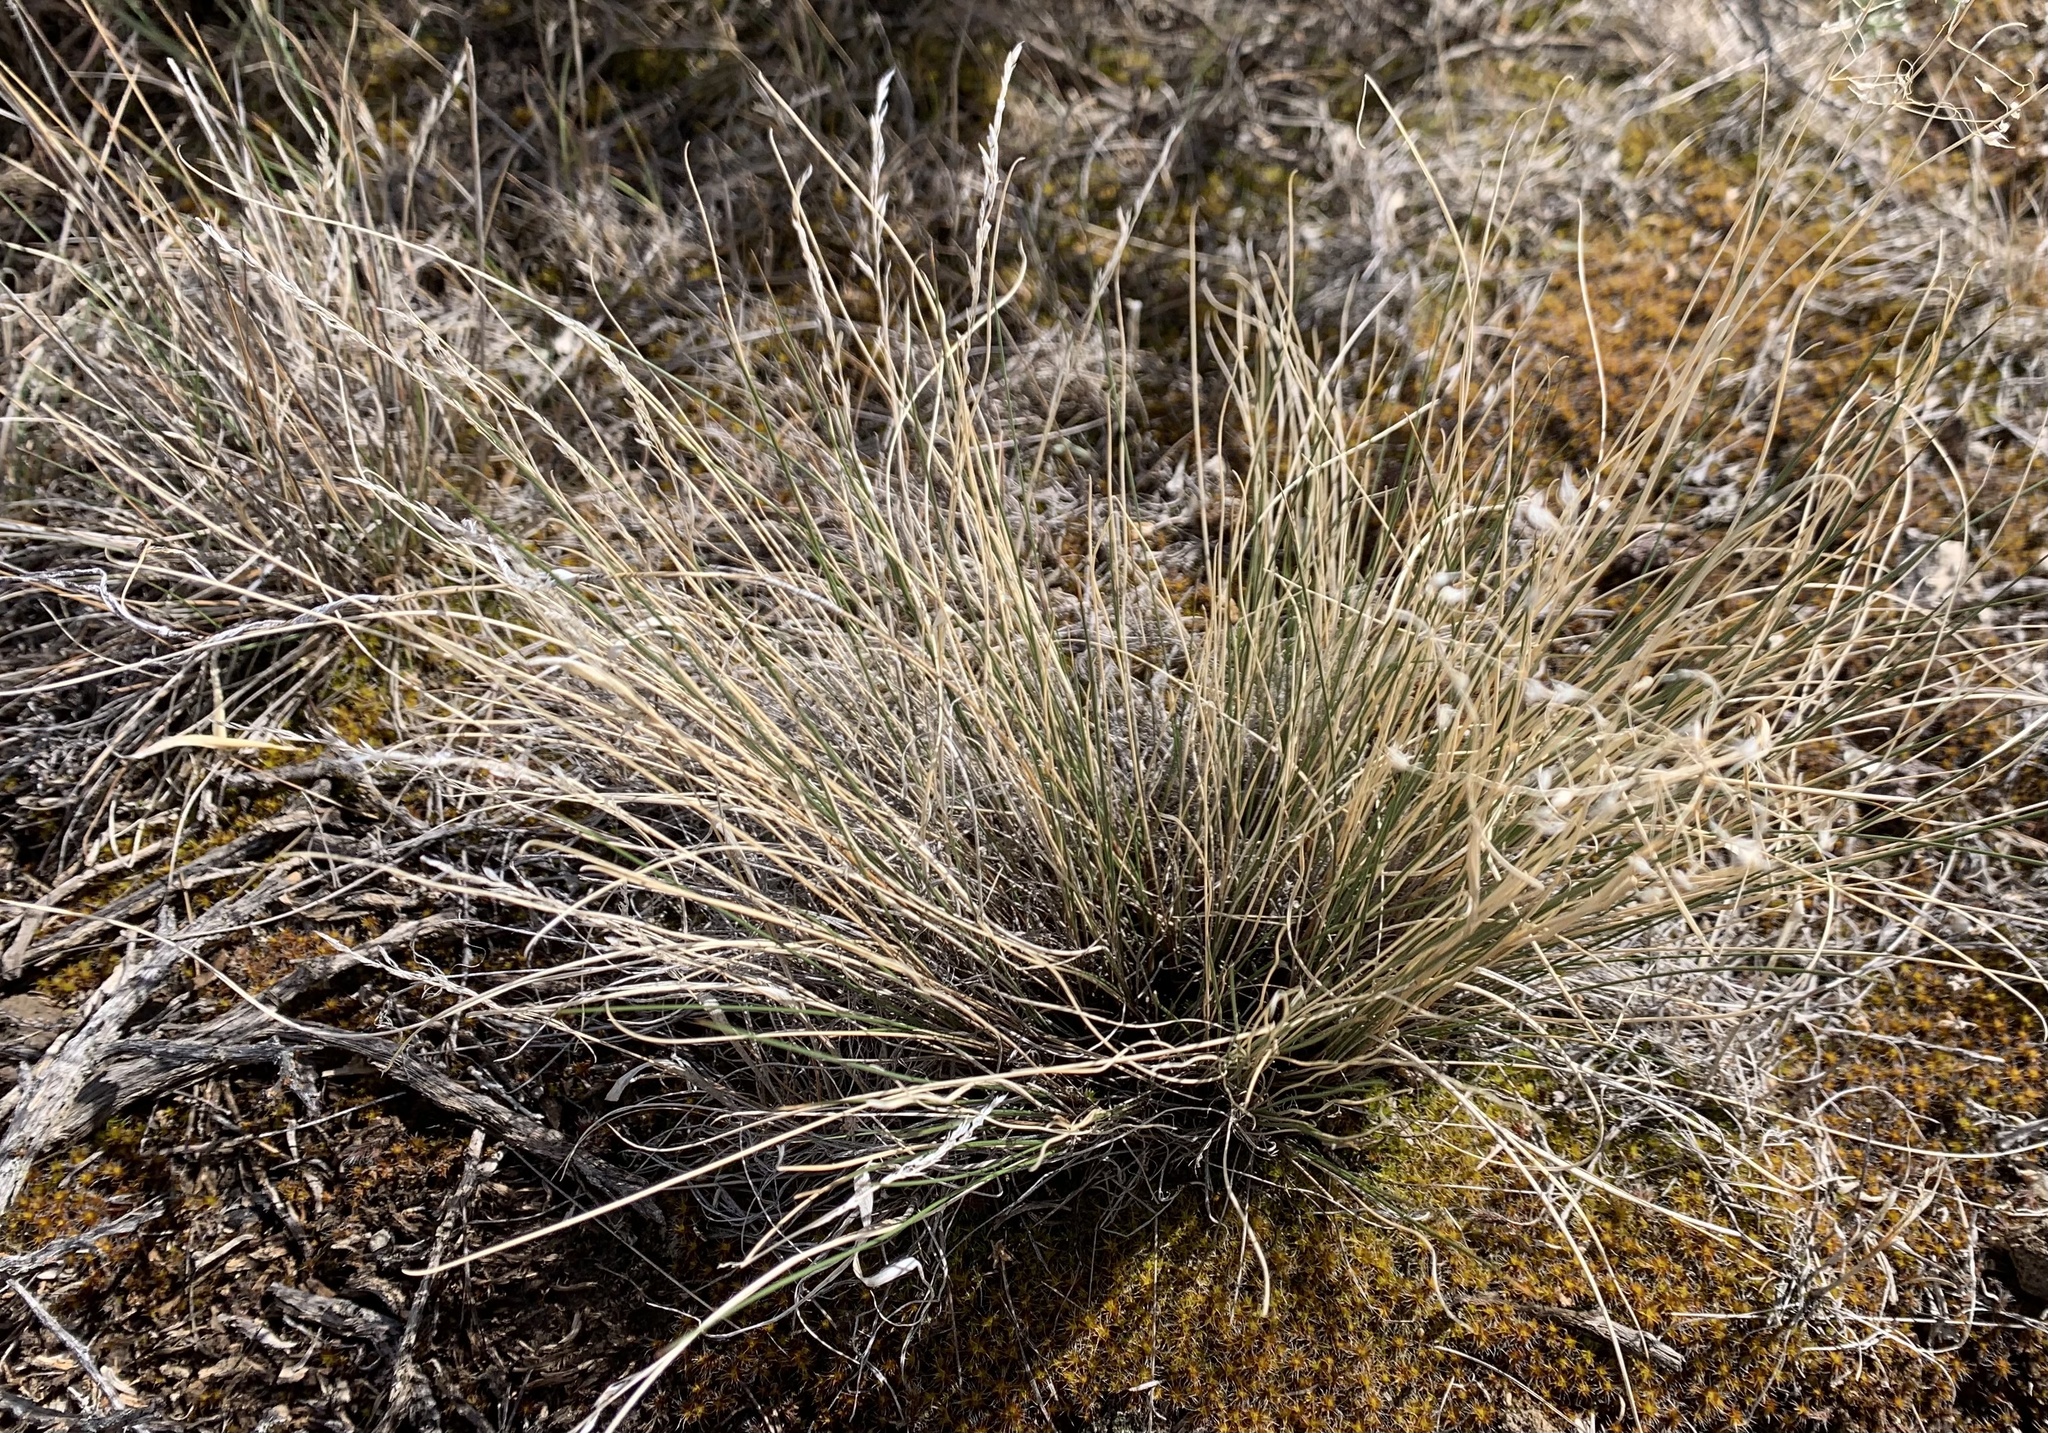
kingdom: Plantae
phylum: Tracheophyta
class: Liliopsida
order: Poales
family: Poaceae
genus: Eriocoma
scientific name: Eriocoma hymenoides
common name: Indian mountain ricegrass
